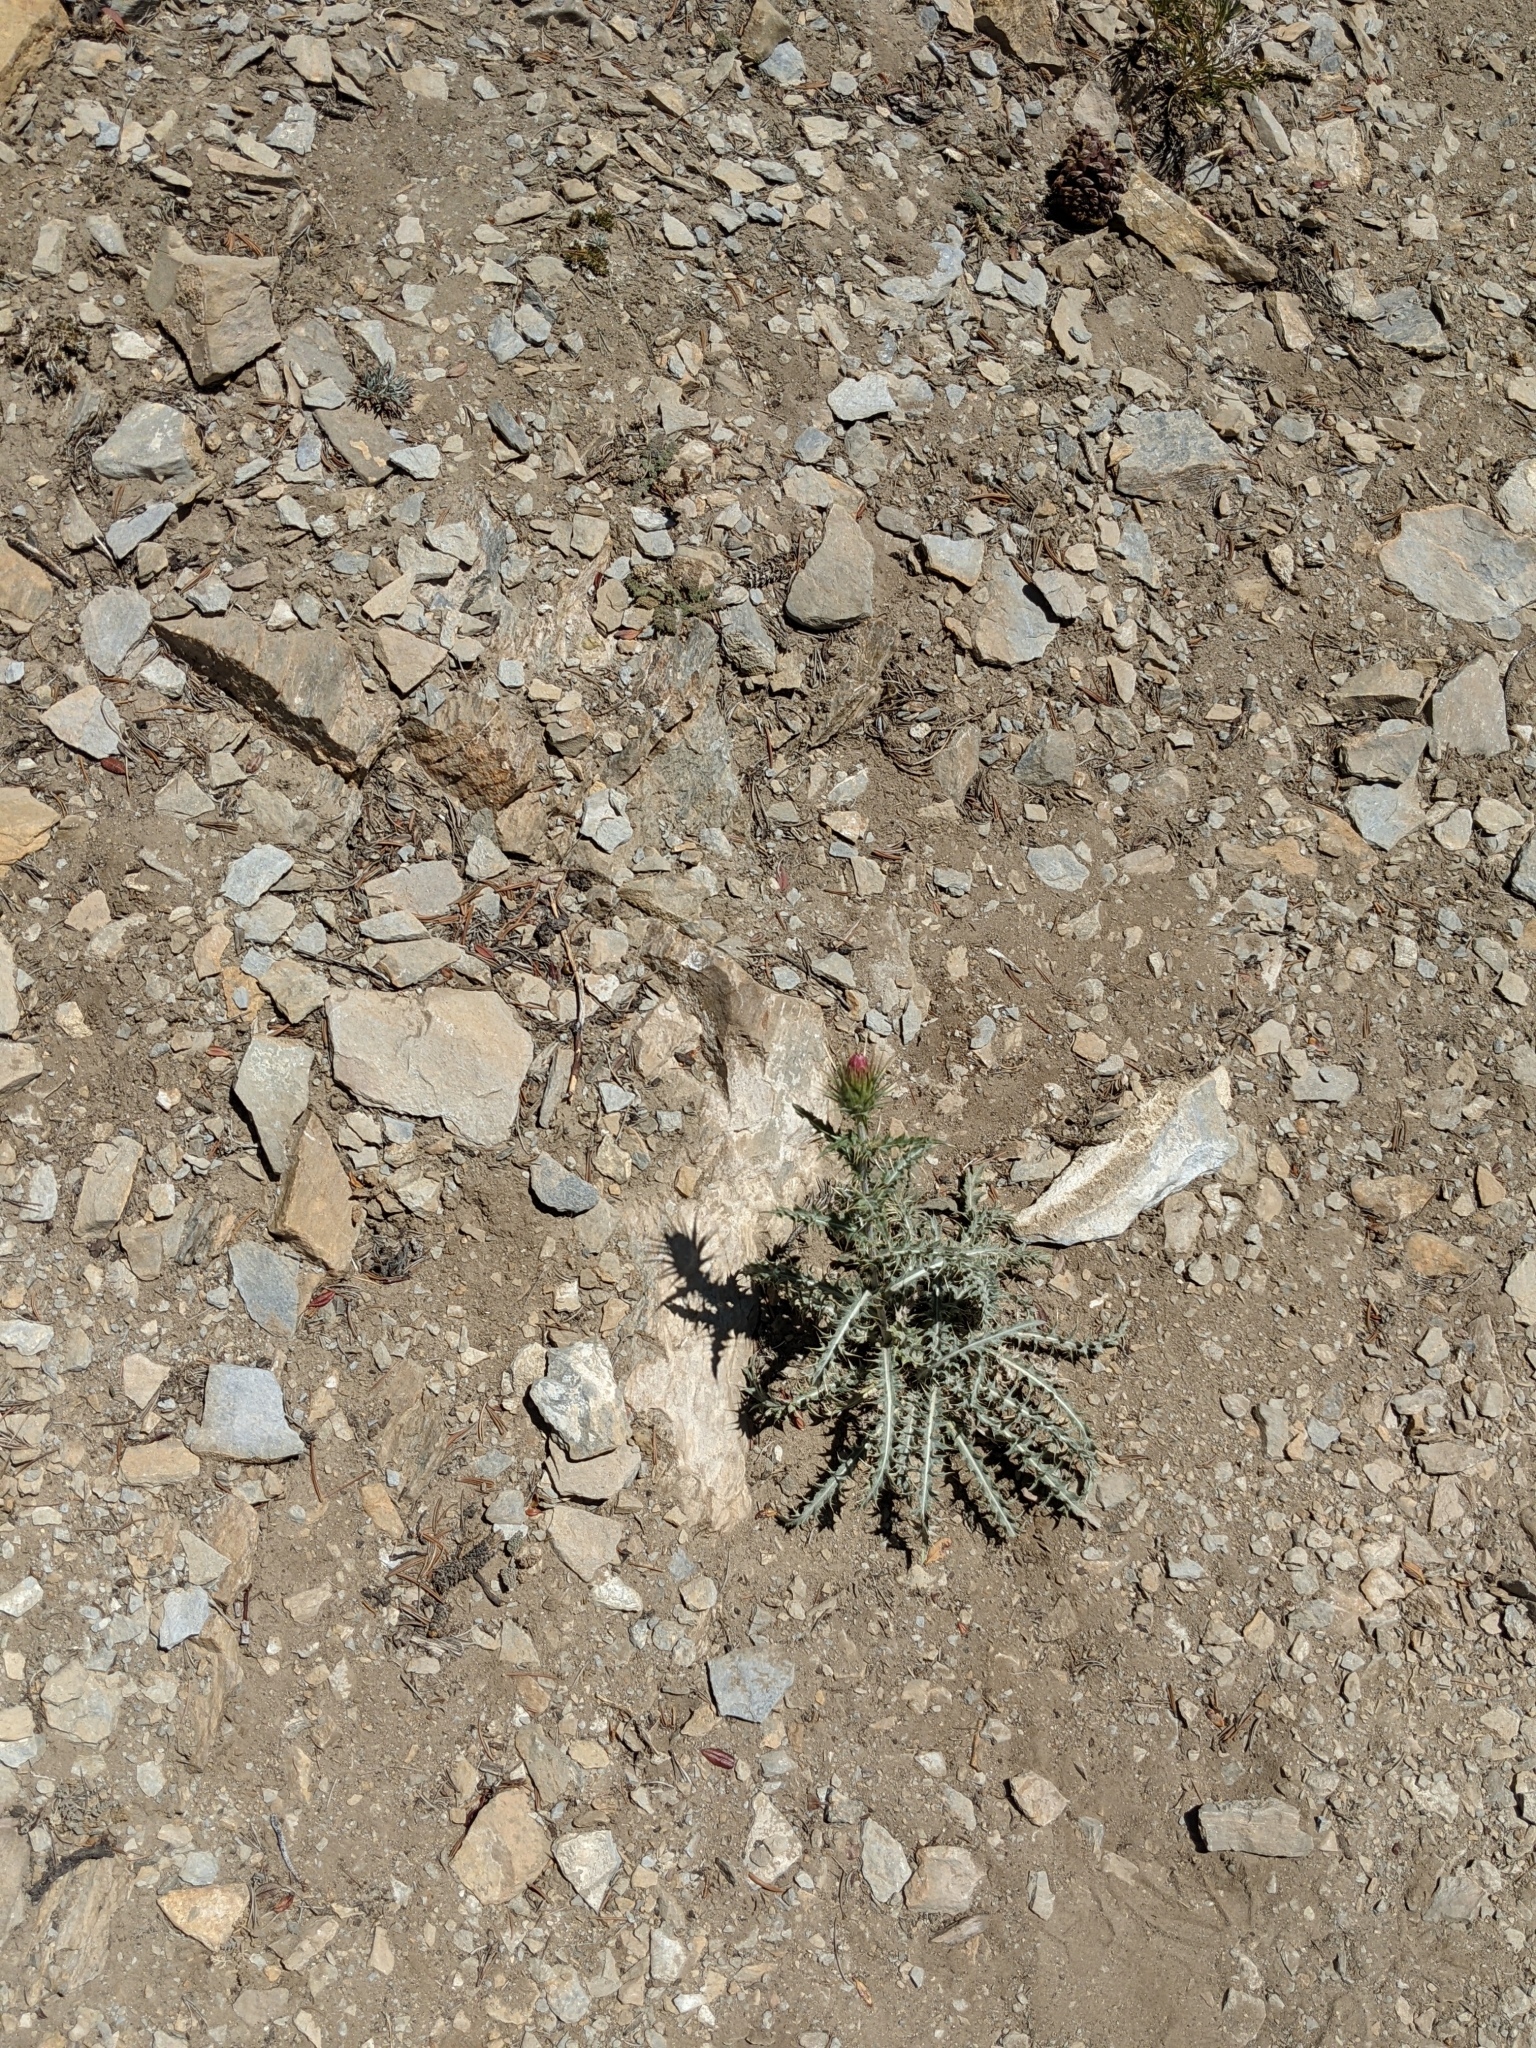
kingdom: Plantae
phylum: Tracheophyta
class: Magnoliopsida
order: Asterales
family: Asteraceae
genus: Cirsium
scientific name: Cirsium arizonicum
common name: Arizona thistle
